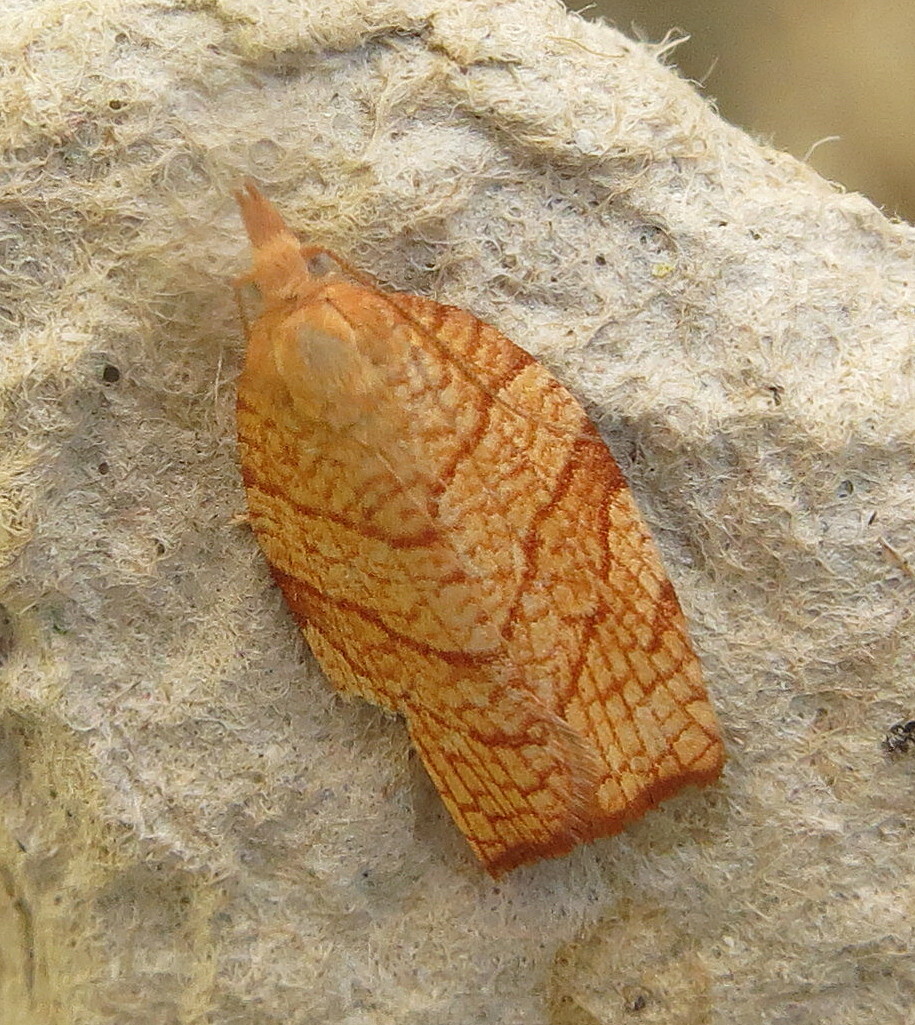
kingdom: Animalia
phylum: Arthropoda
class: Insecta
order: Lepidoptera
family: Tortricidae
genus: Pandemis
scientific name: Pandemis corylana
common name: Chequered fruit-tree tortrix
